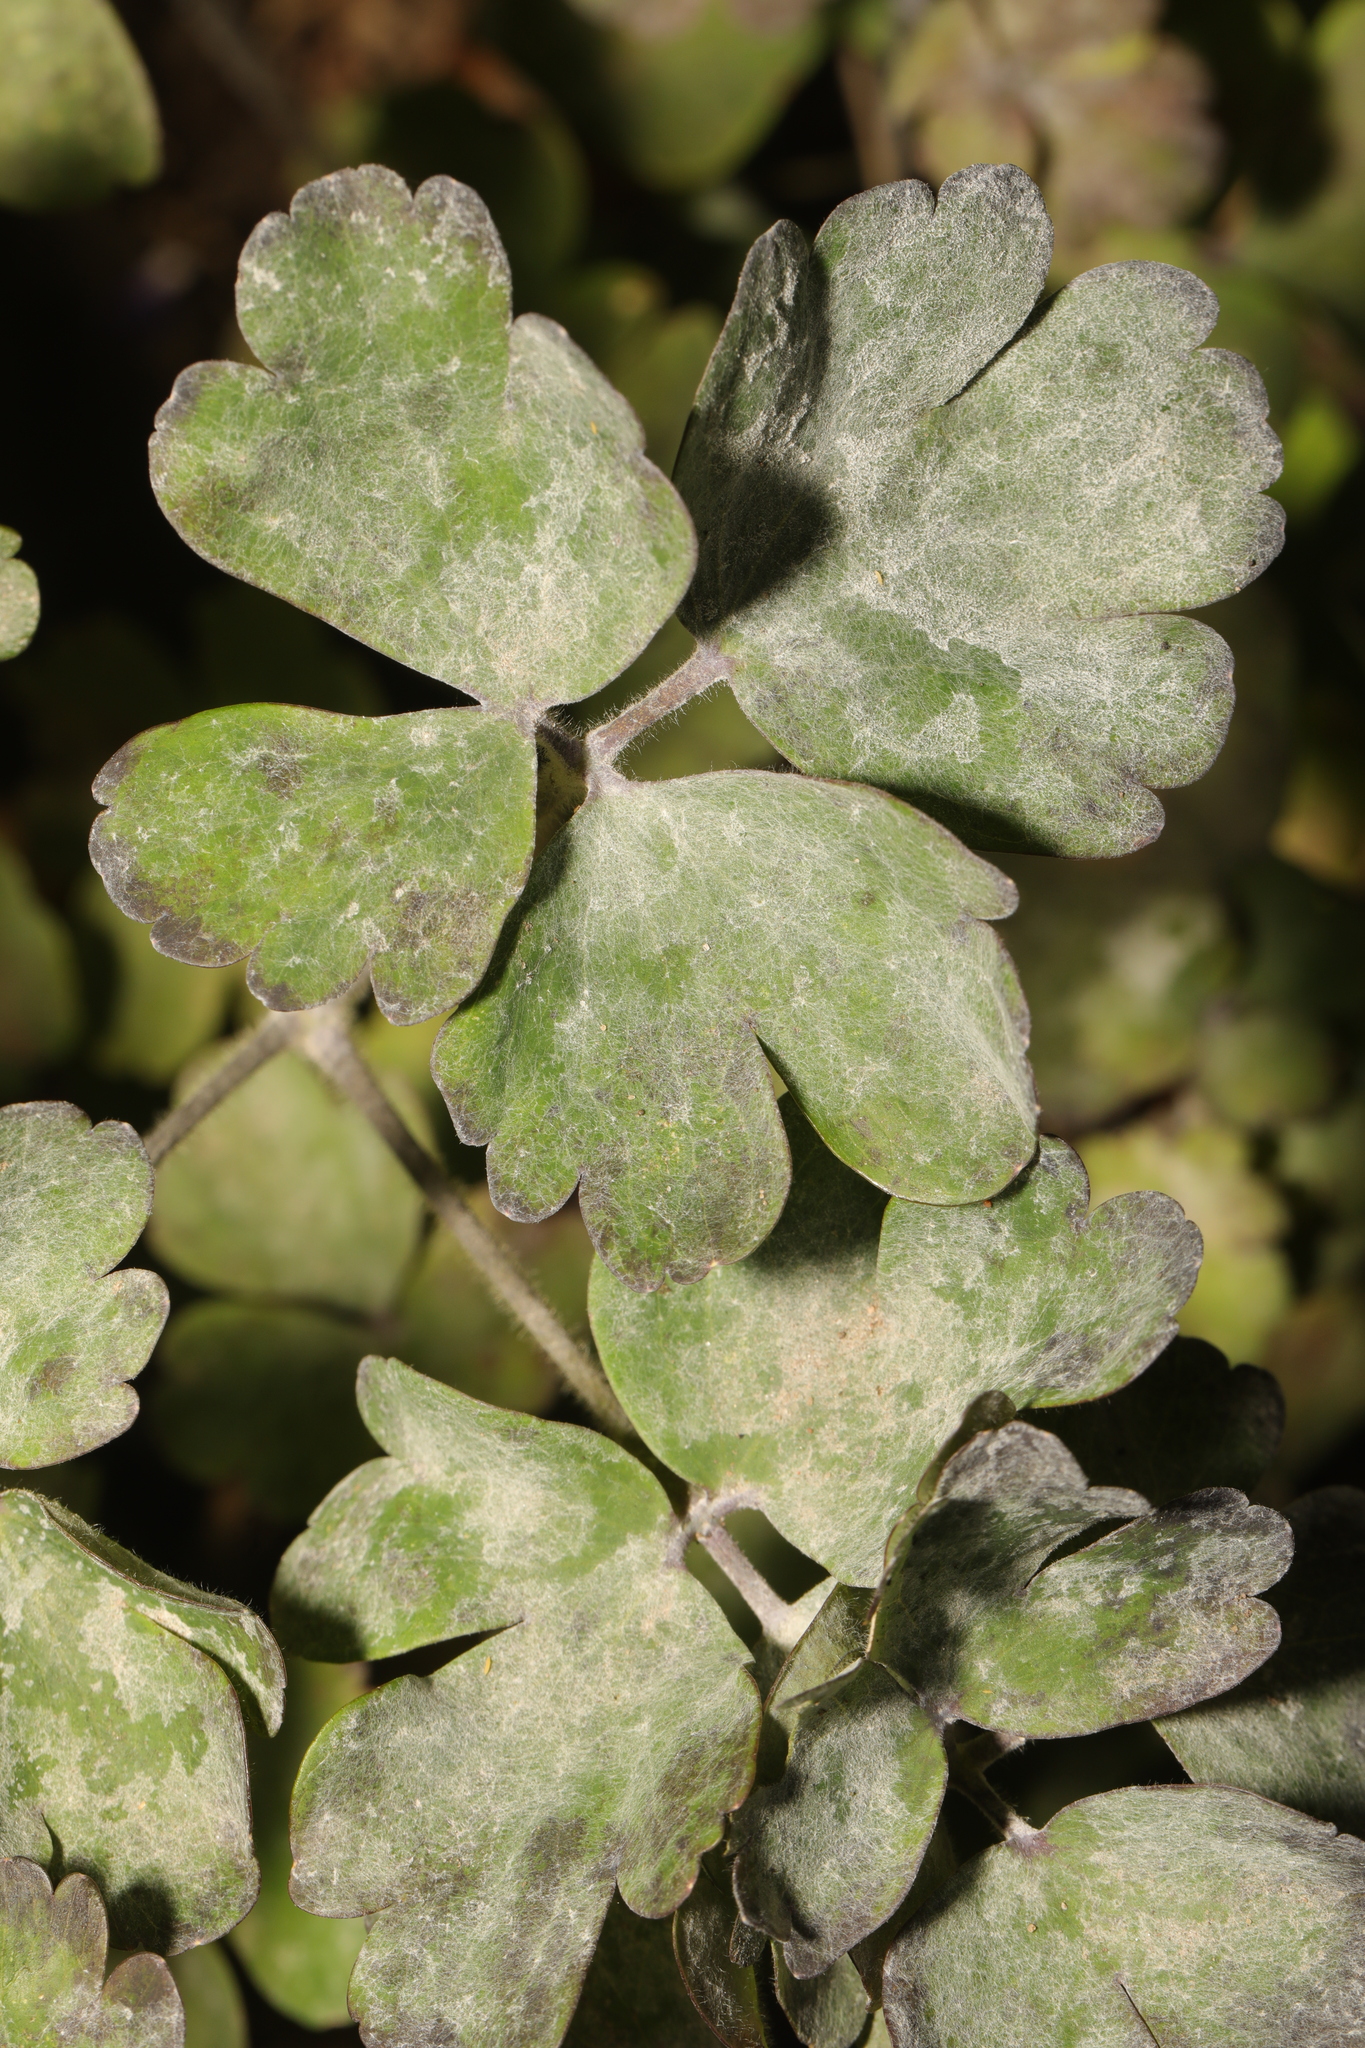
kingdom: Fungi
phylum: Ascomycota
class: Leotiomycetes
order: Helotiales
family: Erysiphaceae
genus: Erysiphe
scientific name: Erysiphe aquilegiae
